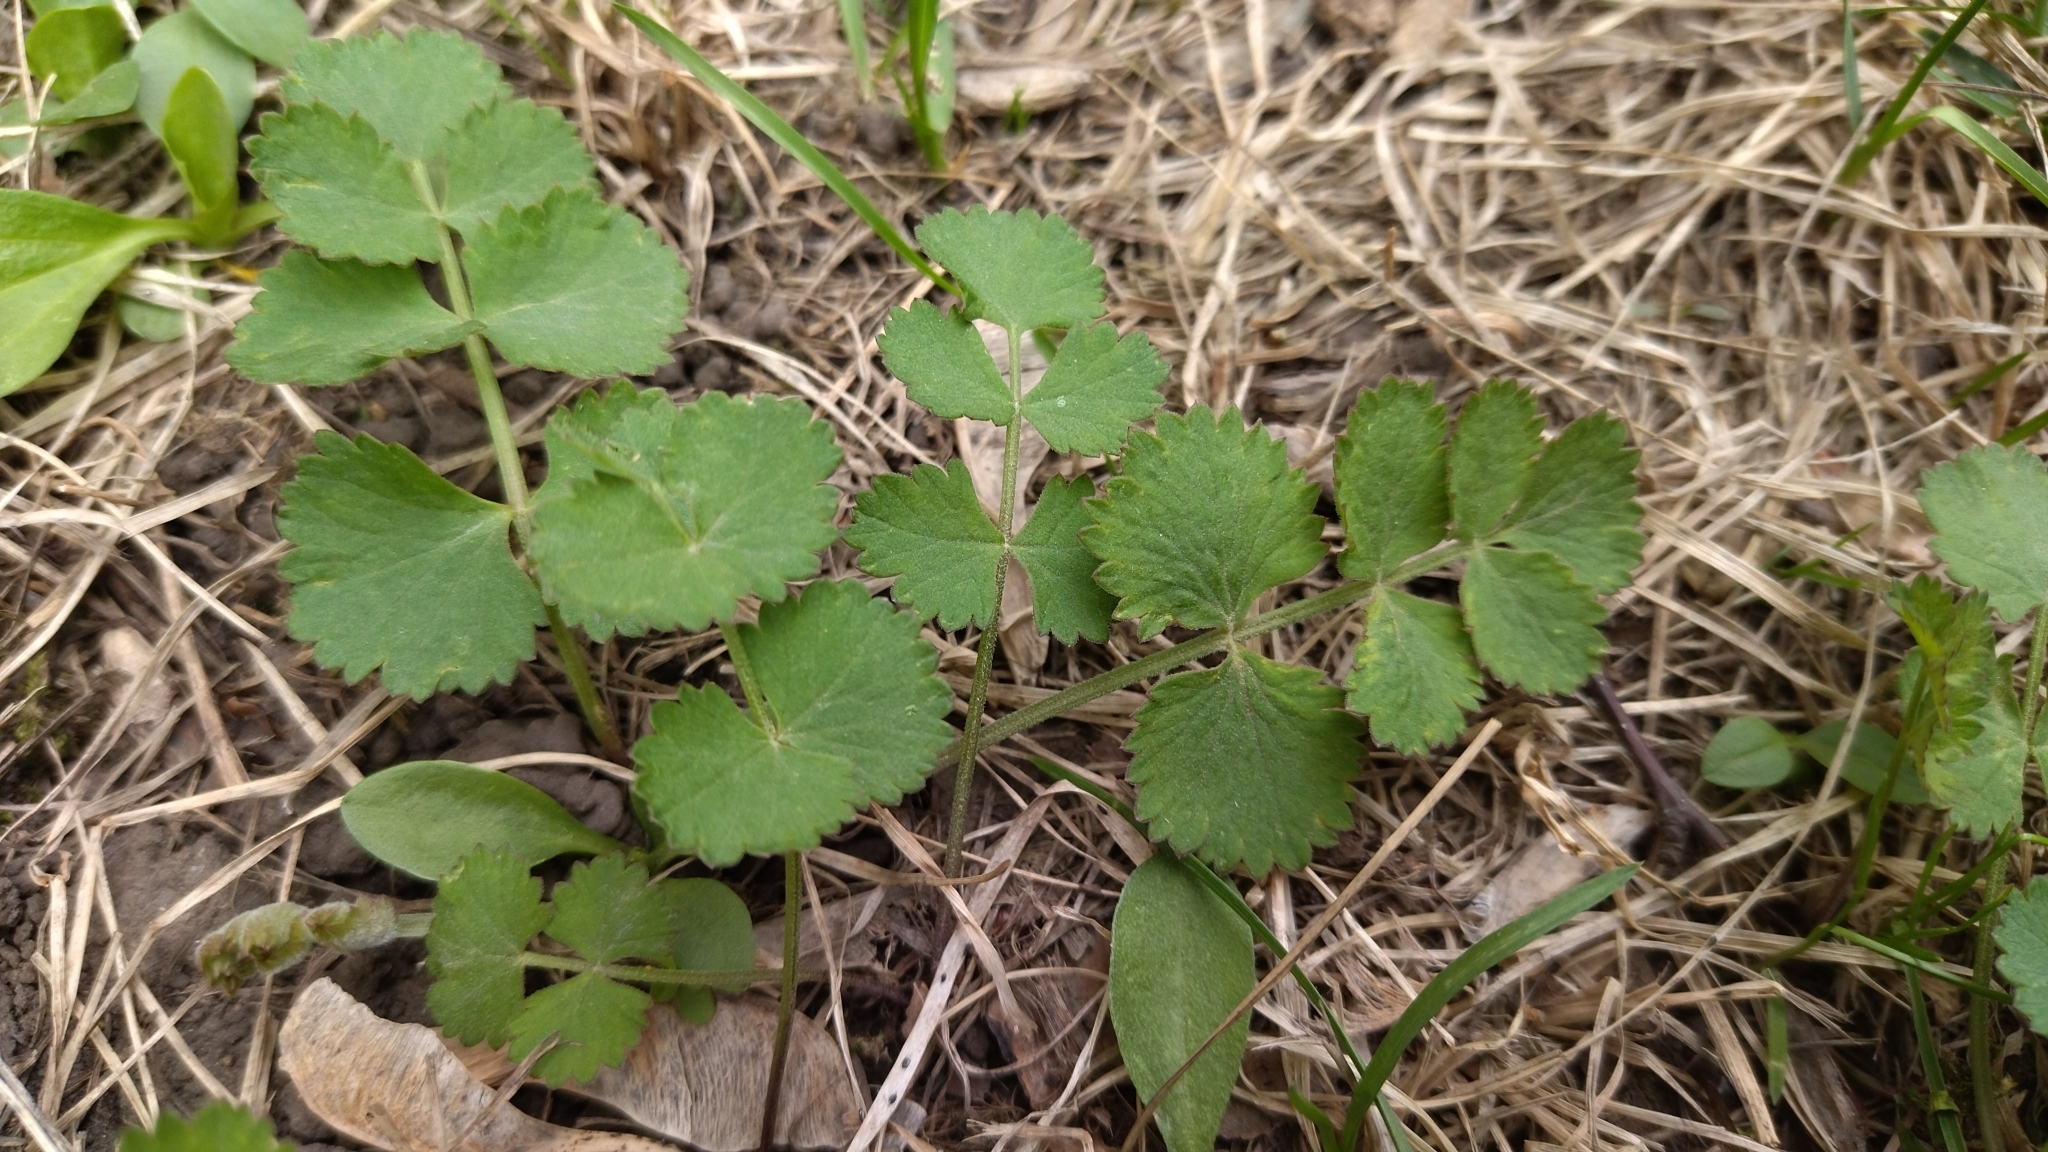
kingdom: Plantae
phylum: Tracheophyta
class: Magnoliopsida
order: Apiales
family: Apiaceae
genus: Pimpinella
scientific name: Pimpinella saxifraga
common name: Burnet-saxifrage
